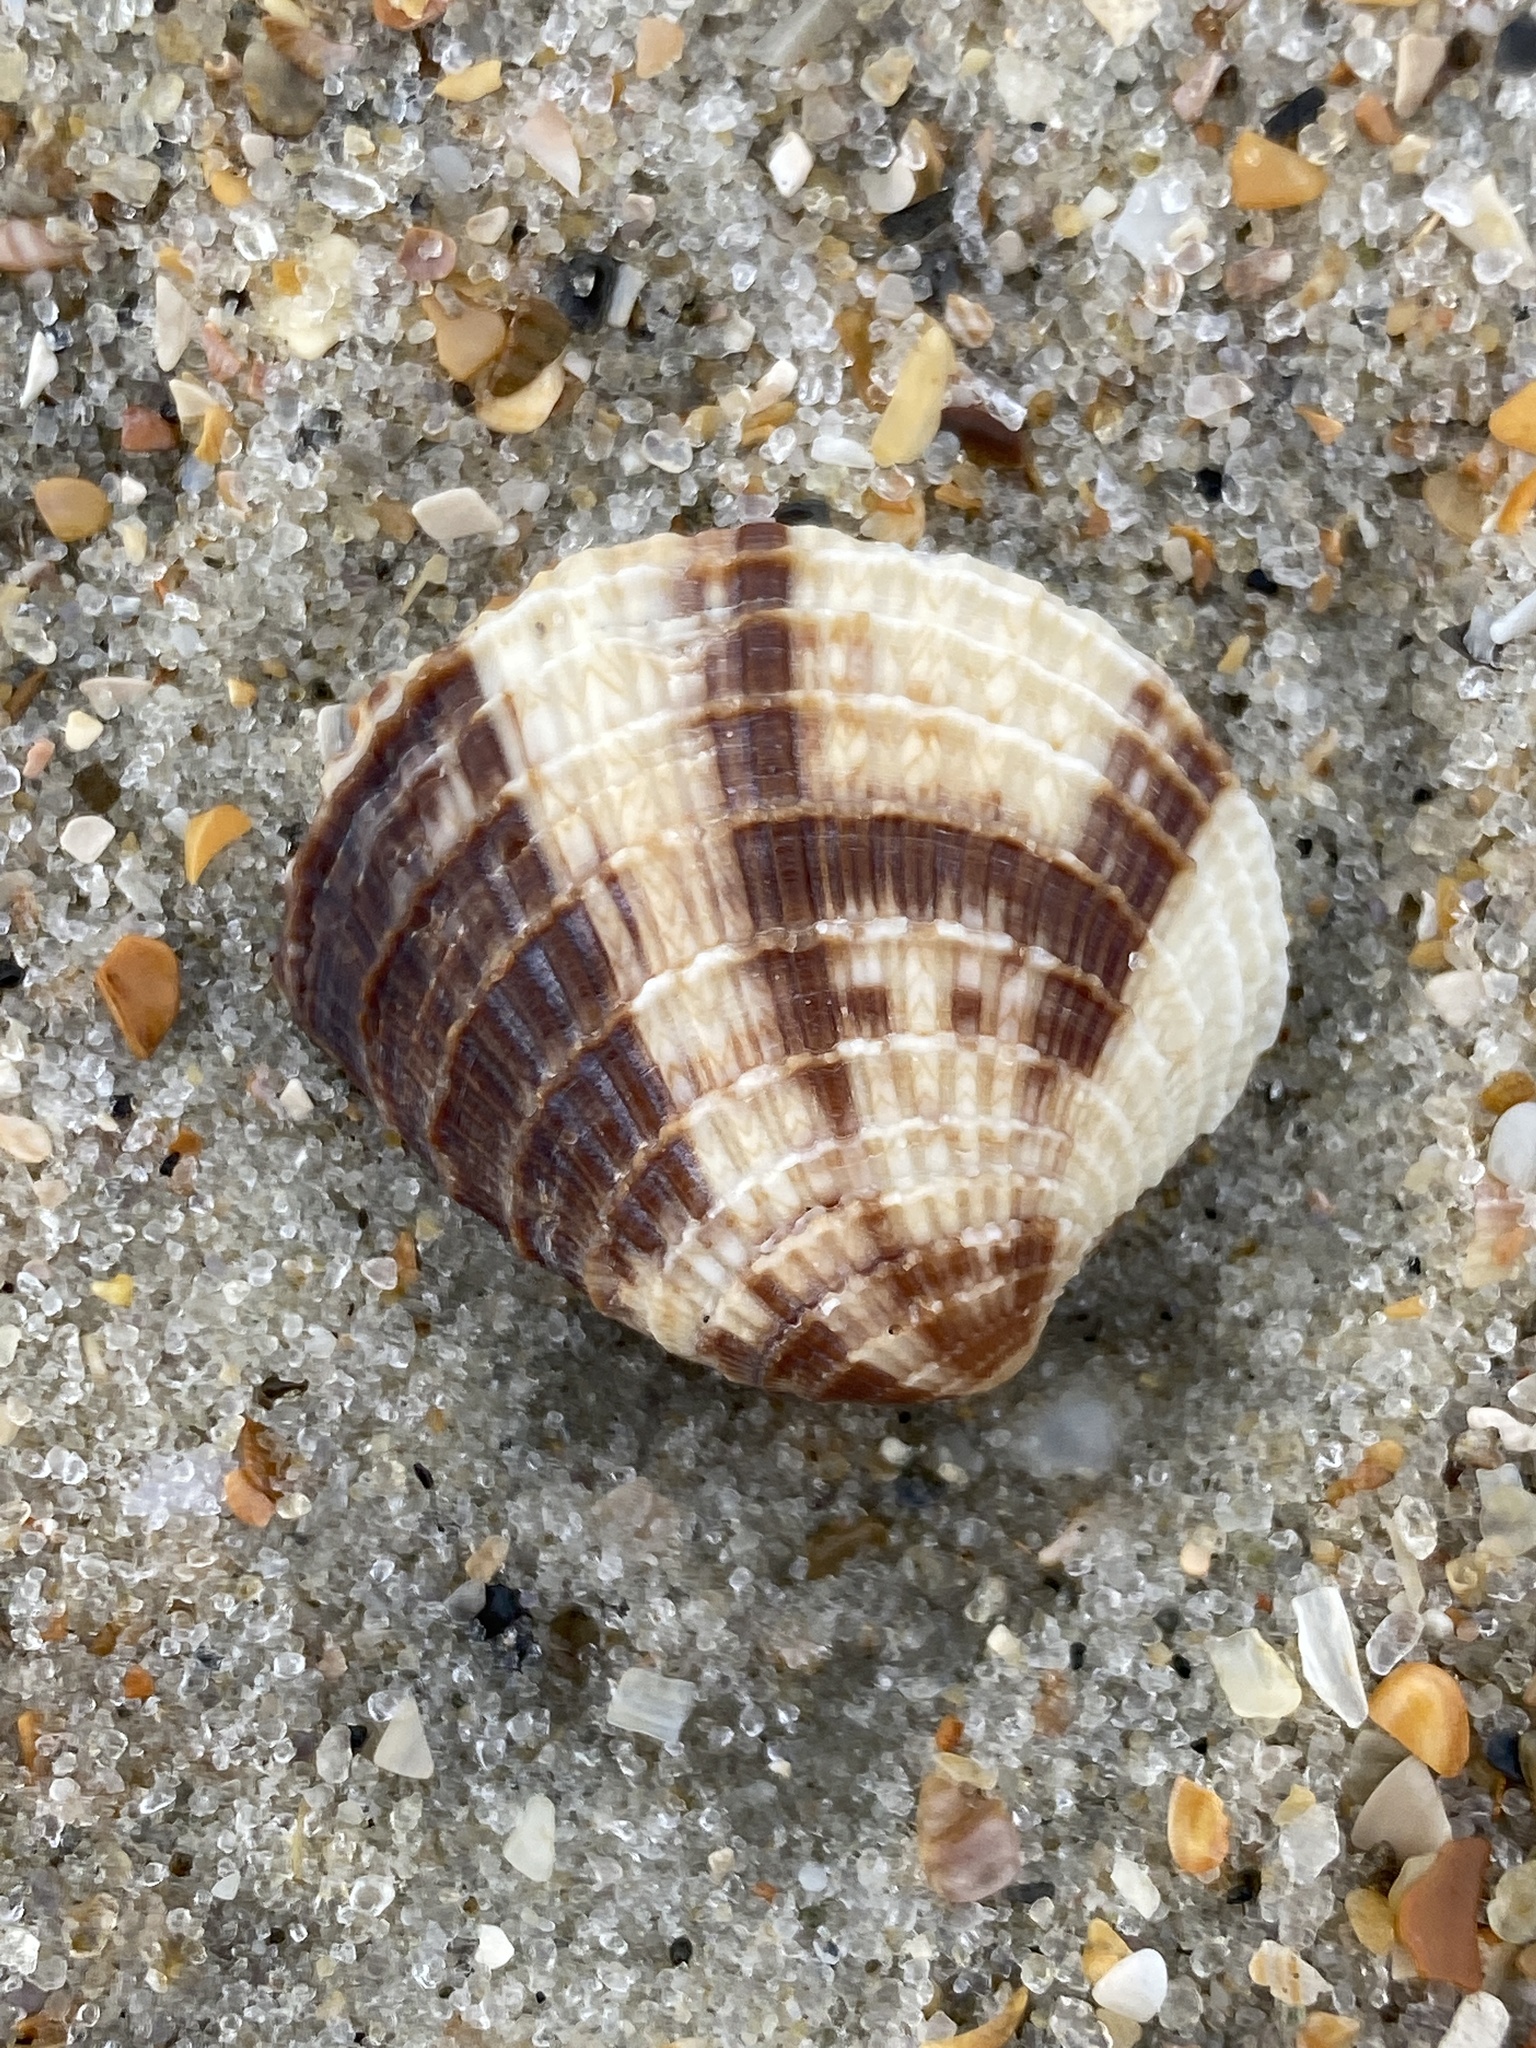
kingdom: Animalia
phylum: Mollusca
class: Bivalvia
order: Venerida
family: Veneridae
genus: Chione
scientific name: Chione elevata
